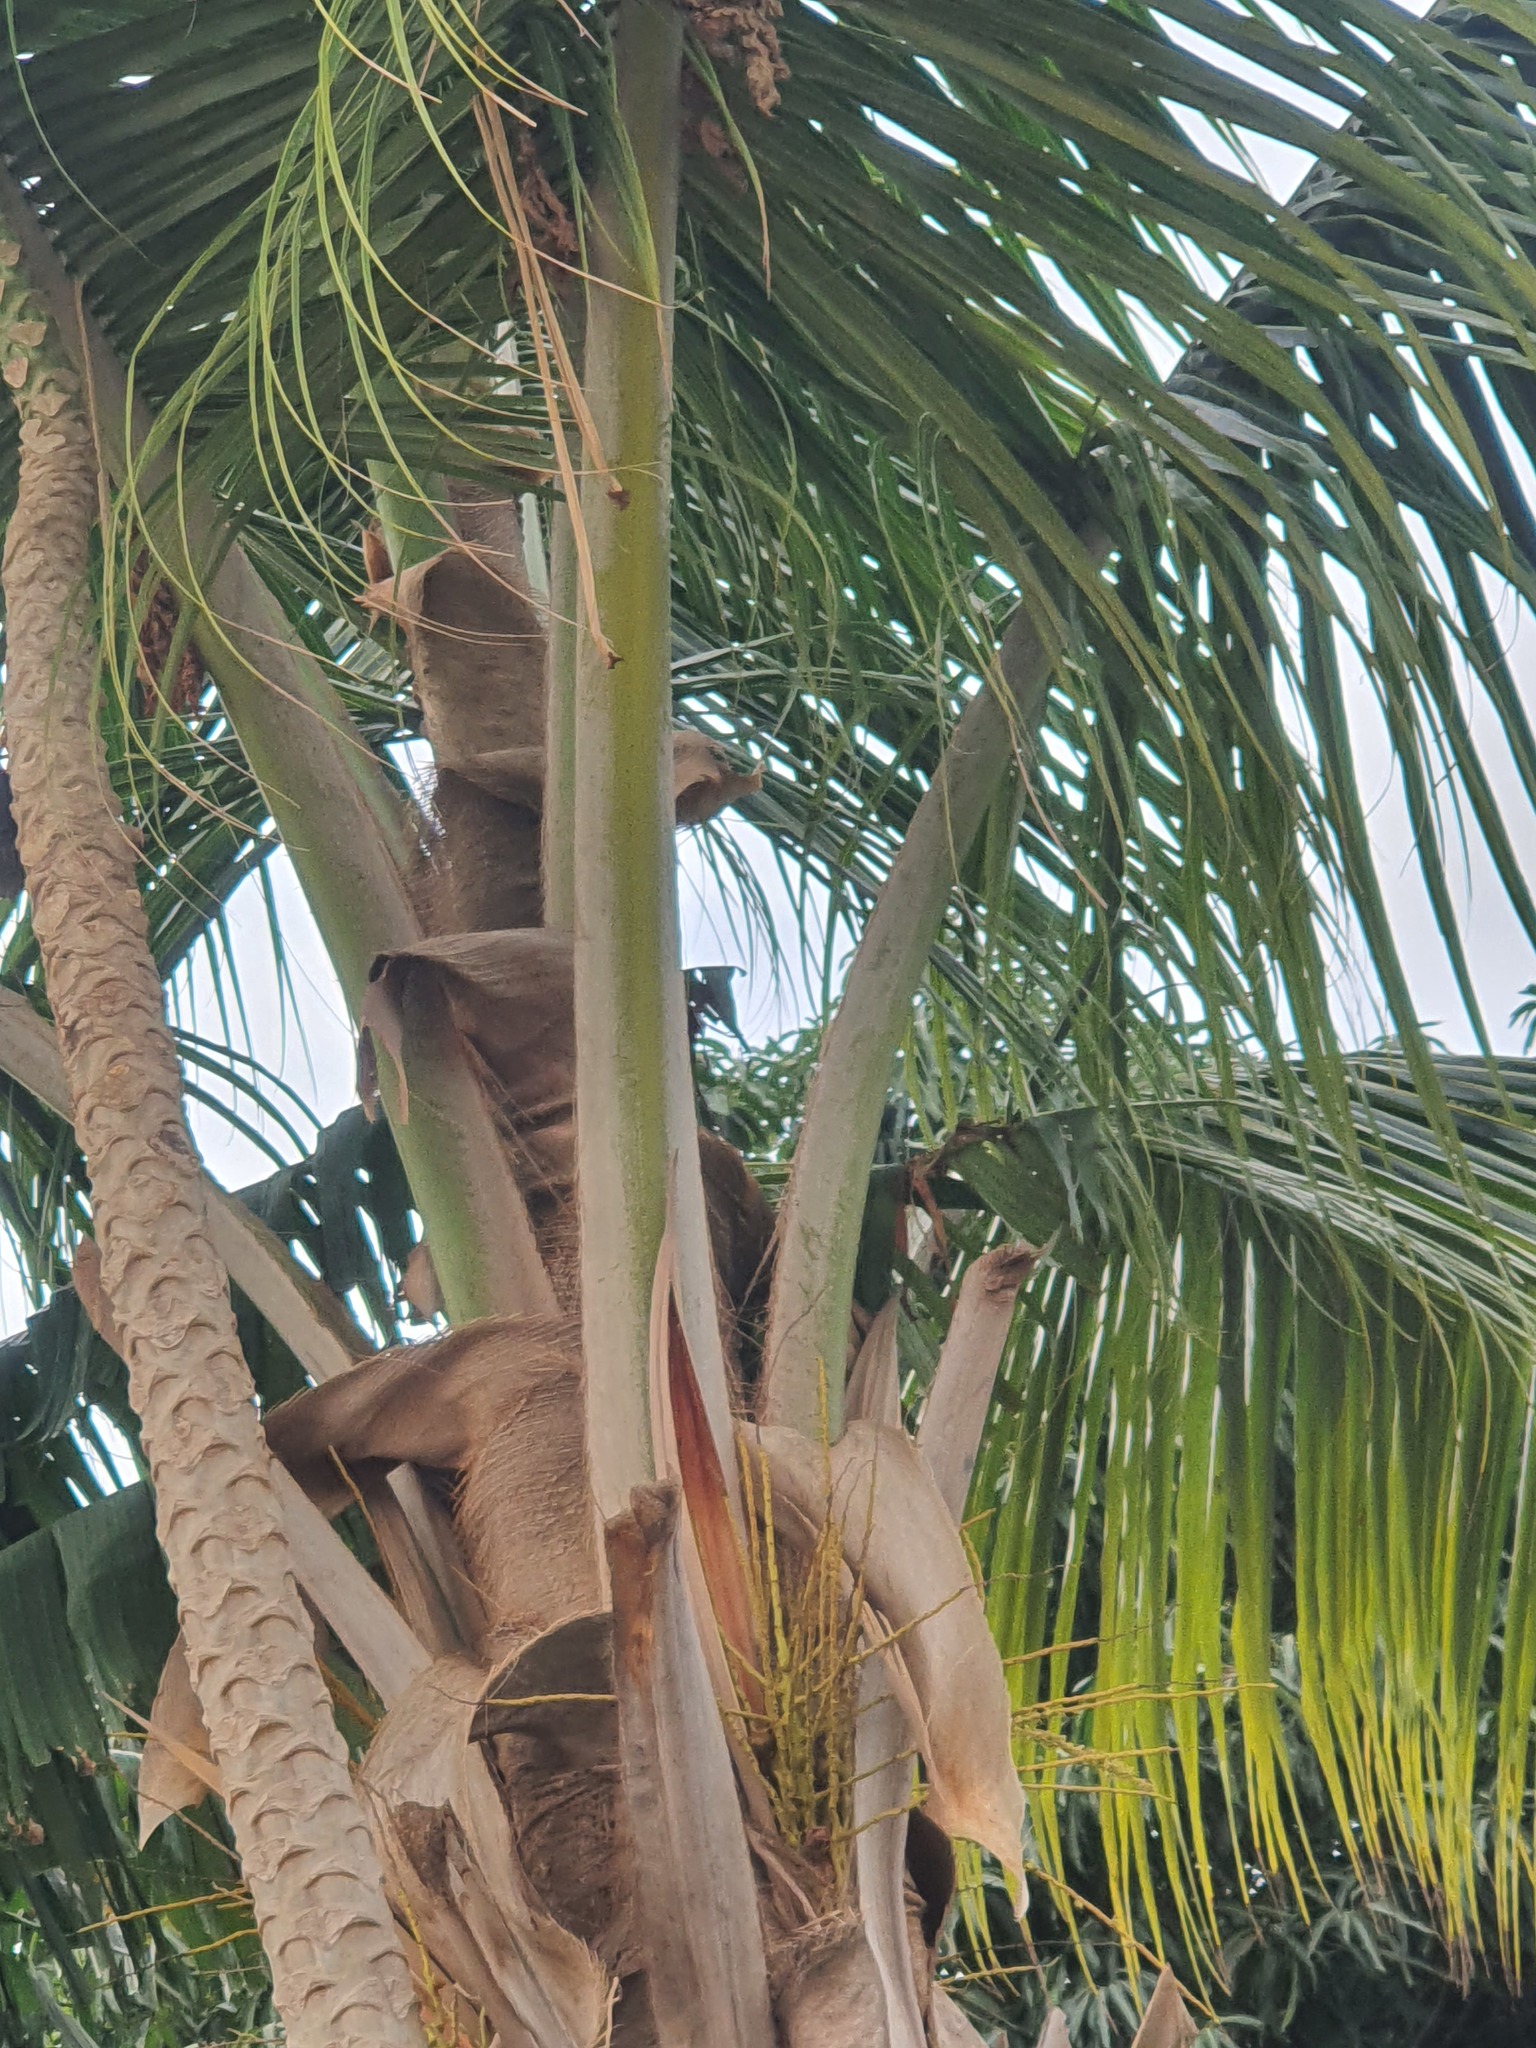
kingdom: Plantae
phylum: Tracheophyta
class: Liliopsida
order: Arecales
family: Arecaceae
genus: Cocos
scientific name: Cocos nucifera
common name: Coconut palm
